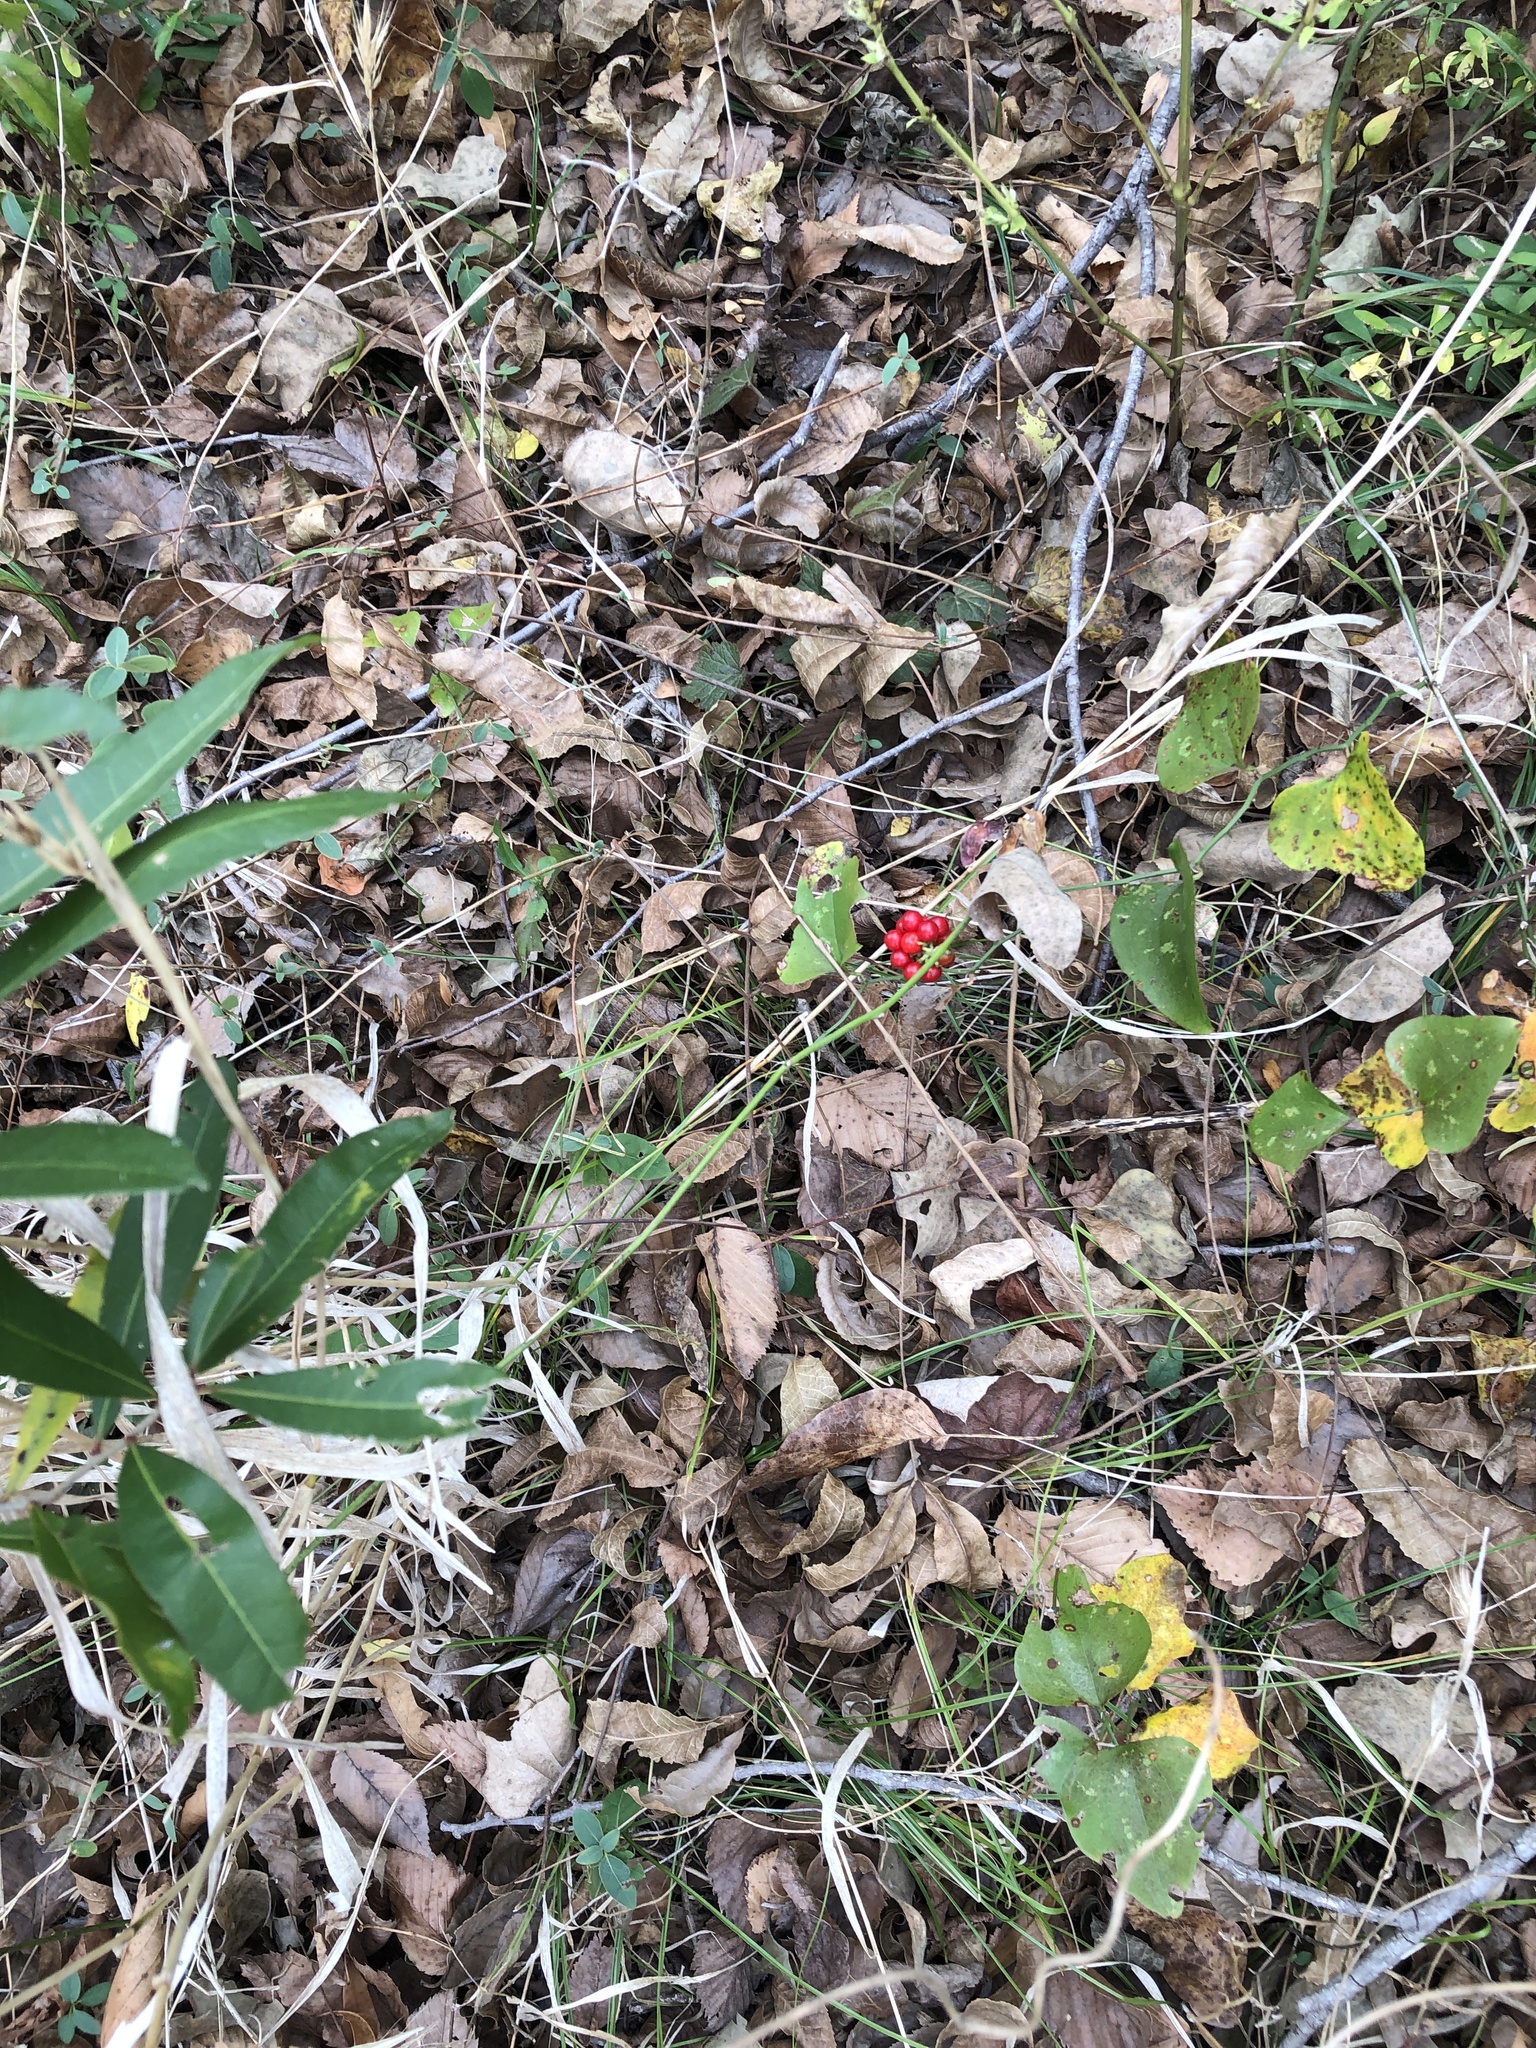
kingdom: Plantae
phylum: Tracheophyta
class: Magnoliopsida
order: Ranunculales
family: Menispermaceae
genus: Cocculus
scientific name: Cocculus carolinus
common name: Carolina moonseed
